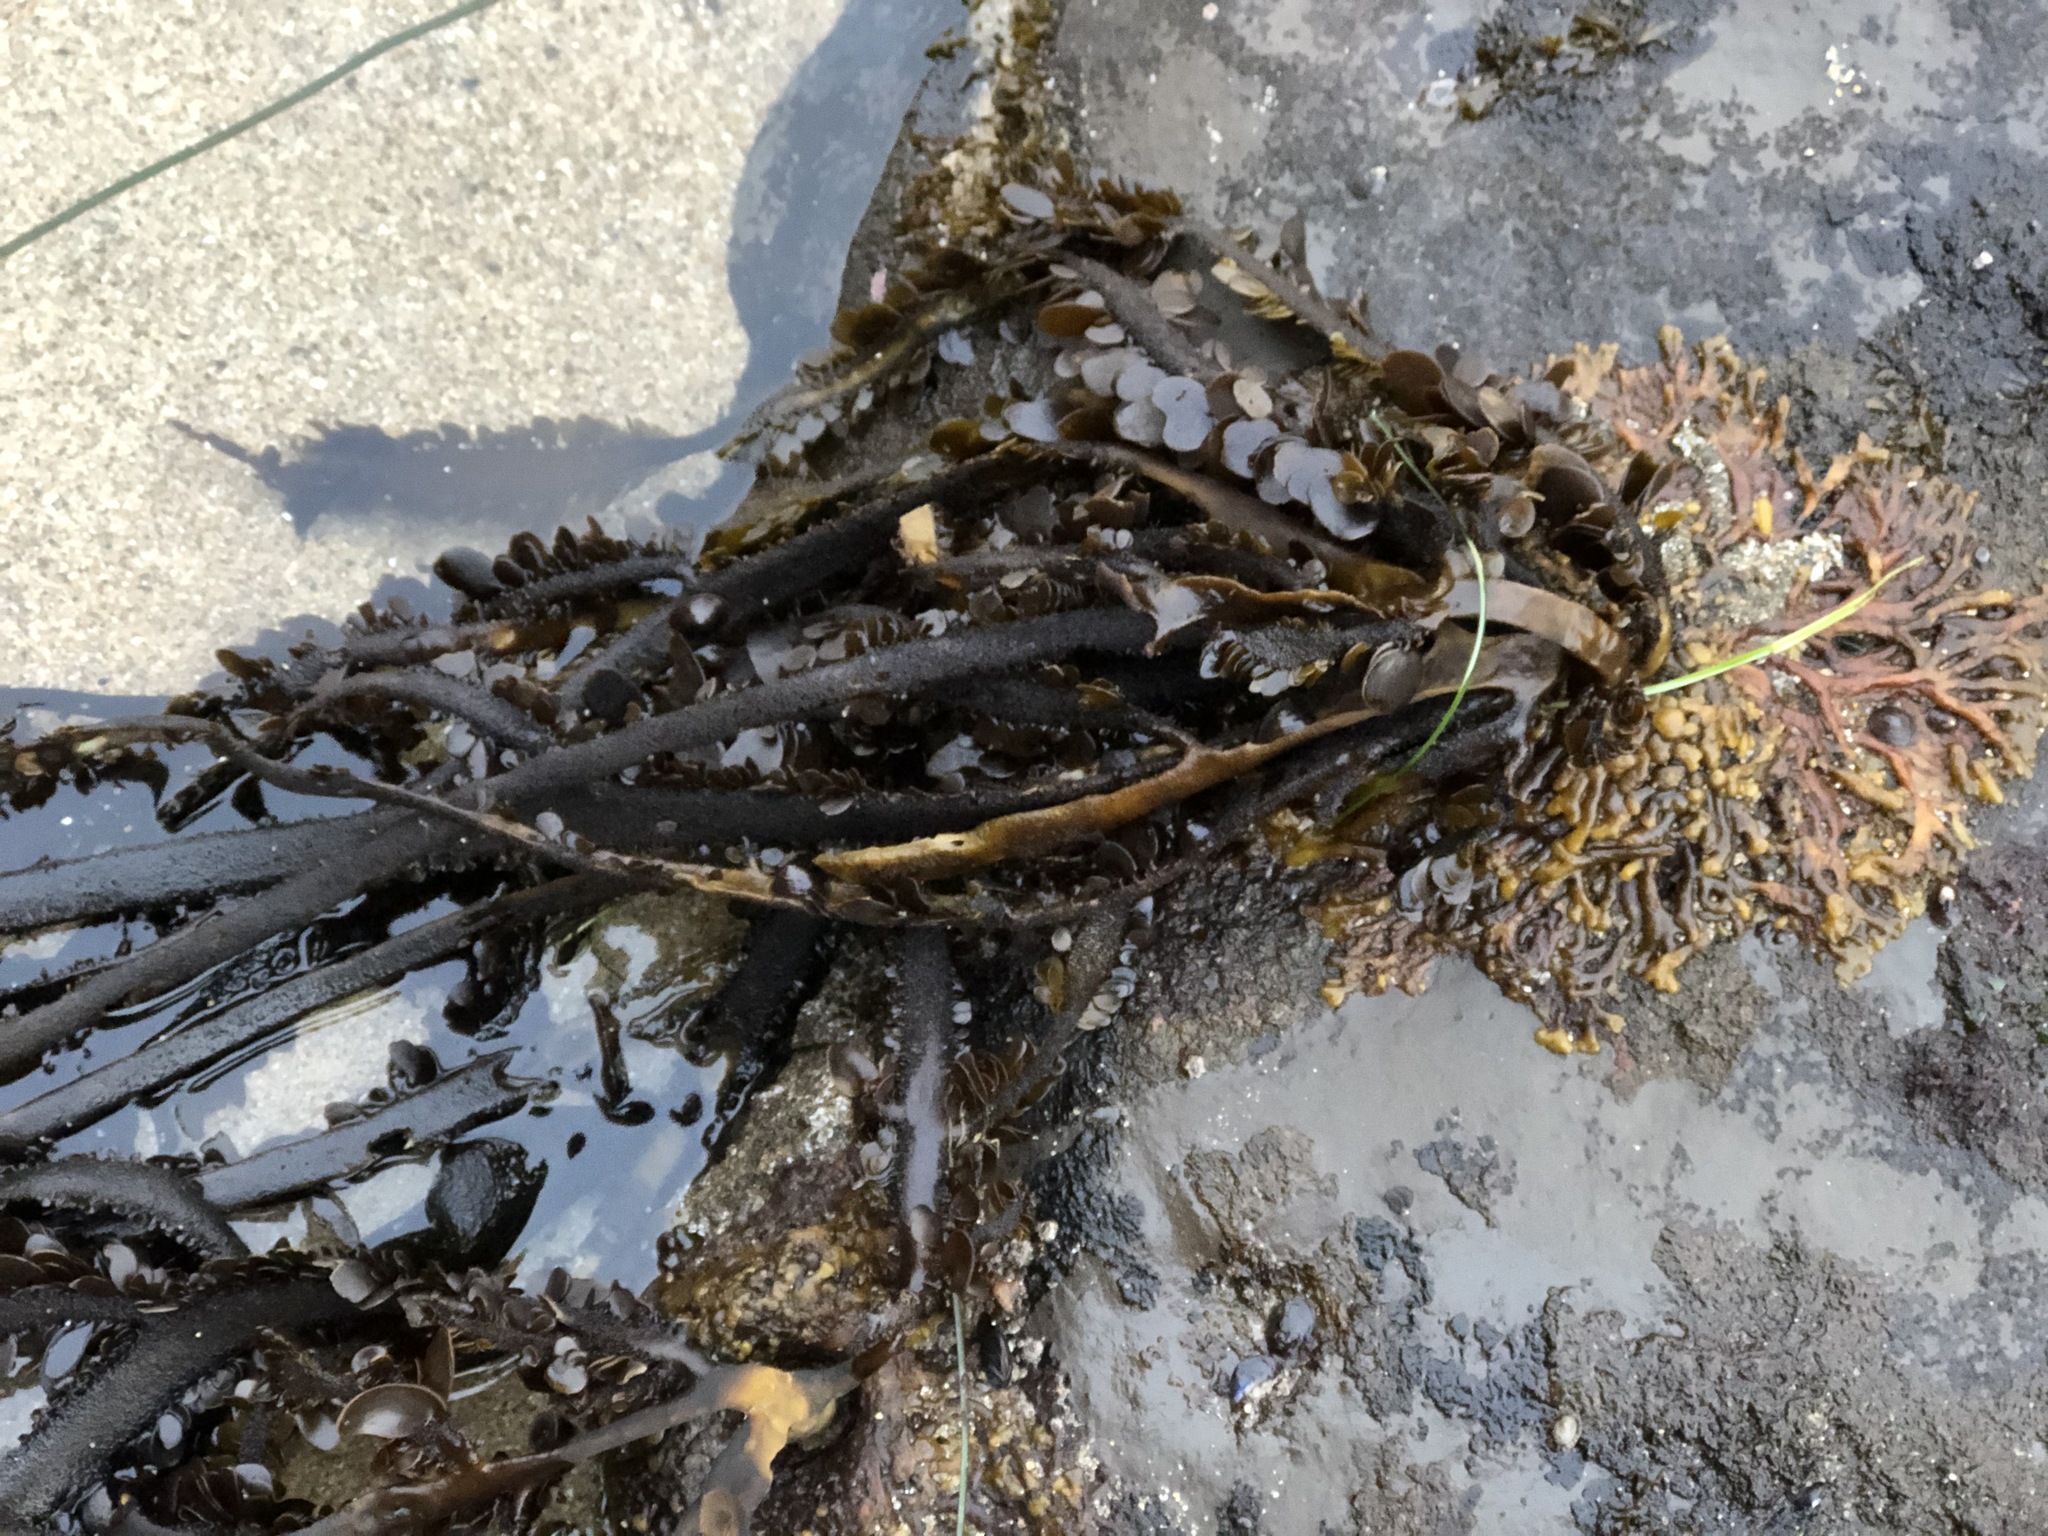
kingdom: Chromista
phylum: Ochrophyta
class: Phaeophyceae
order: Laminariales
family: Lessoniaceae
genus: Egregia
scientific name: Egregia menziesii
